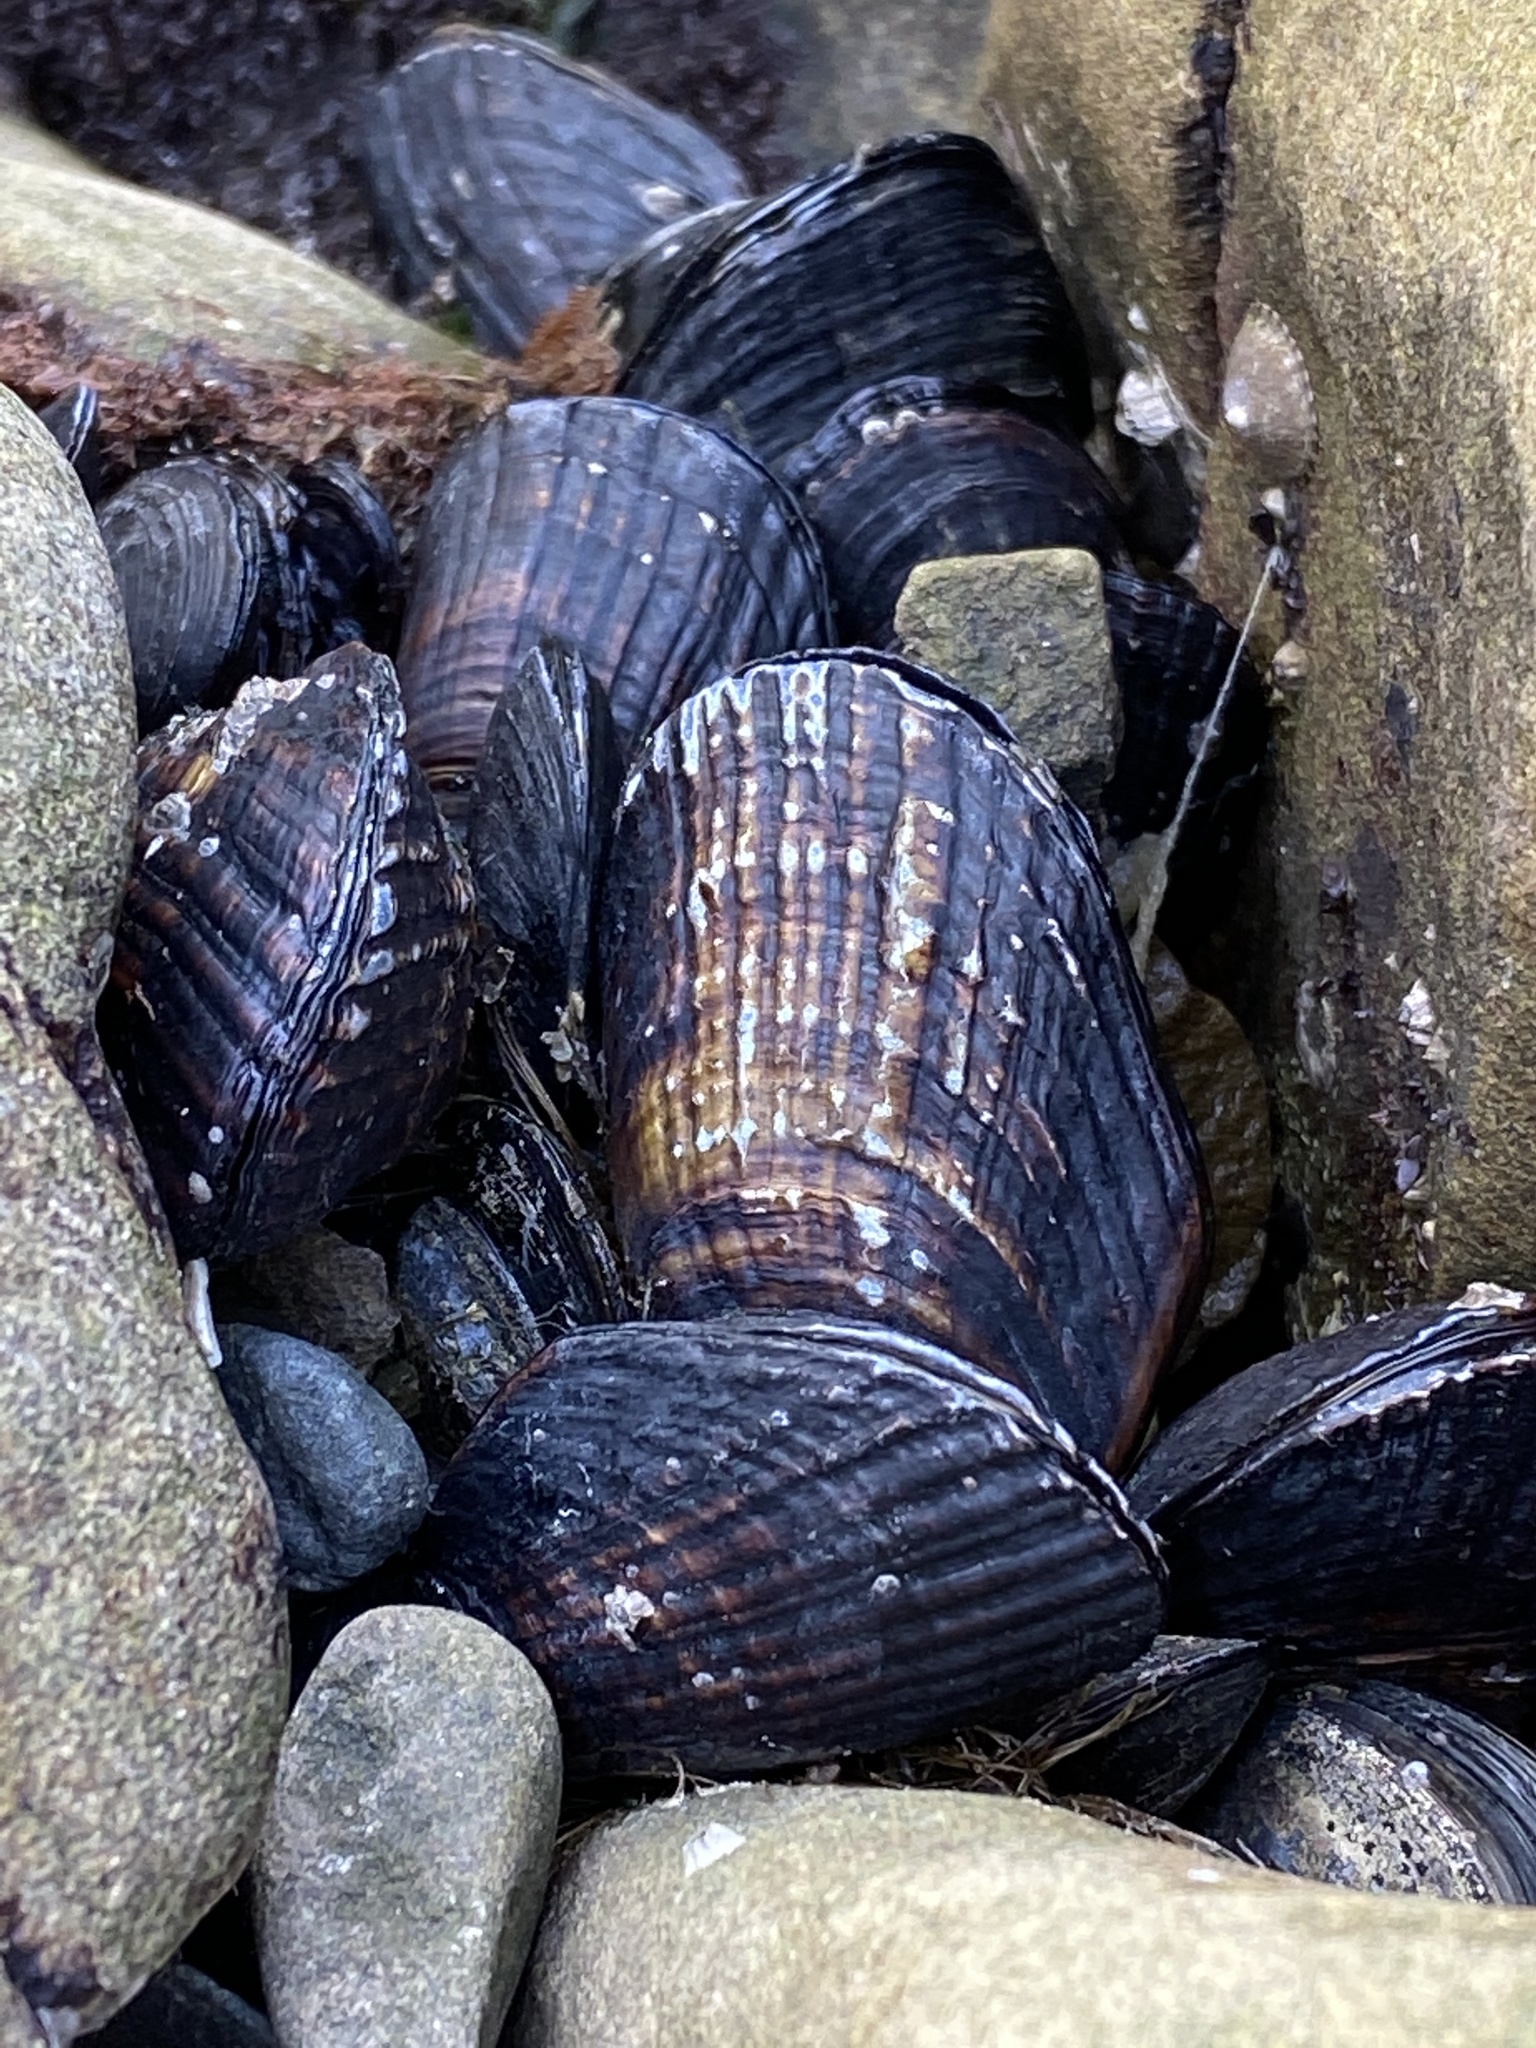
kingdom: Animalia
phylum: Mollusca
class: Bivalvia
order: Mytilida
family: Mytilidae
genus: Mytilus
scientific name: Mytilus californianus
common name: California mussel
